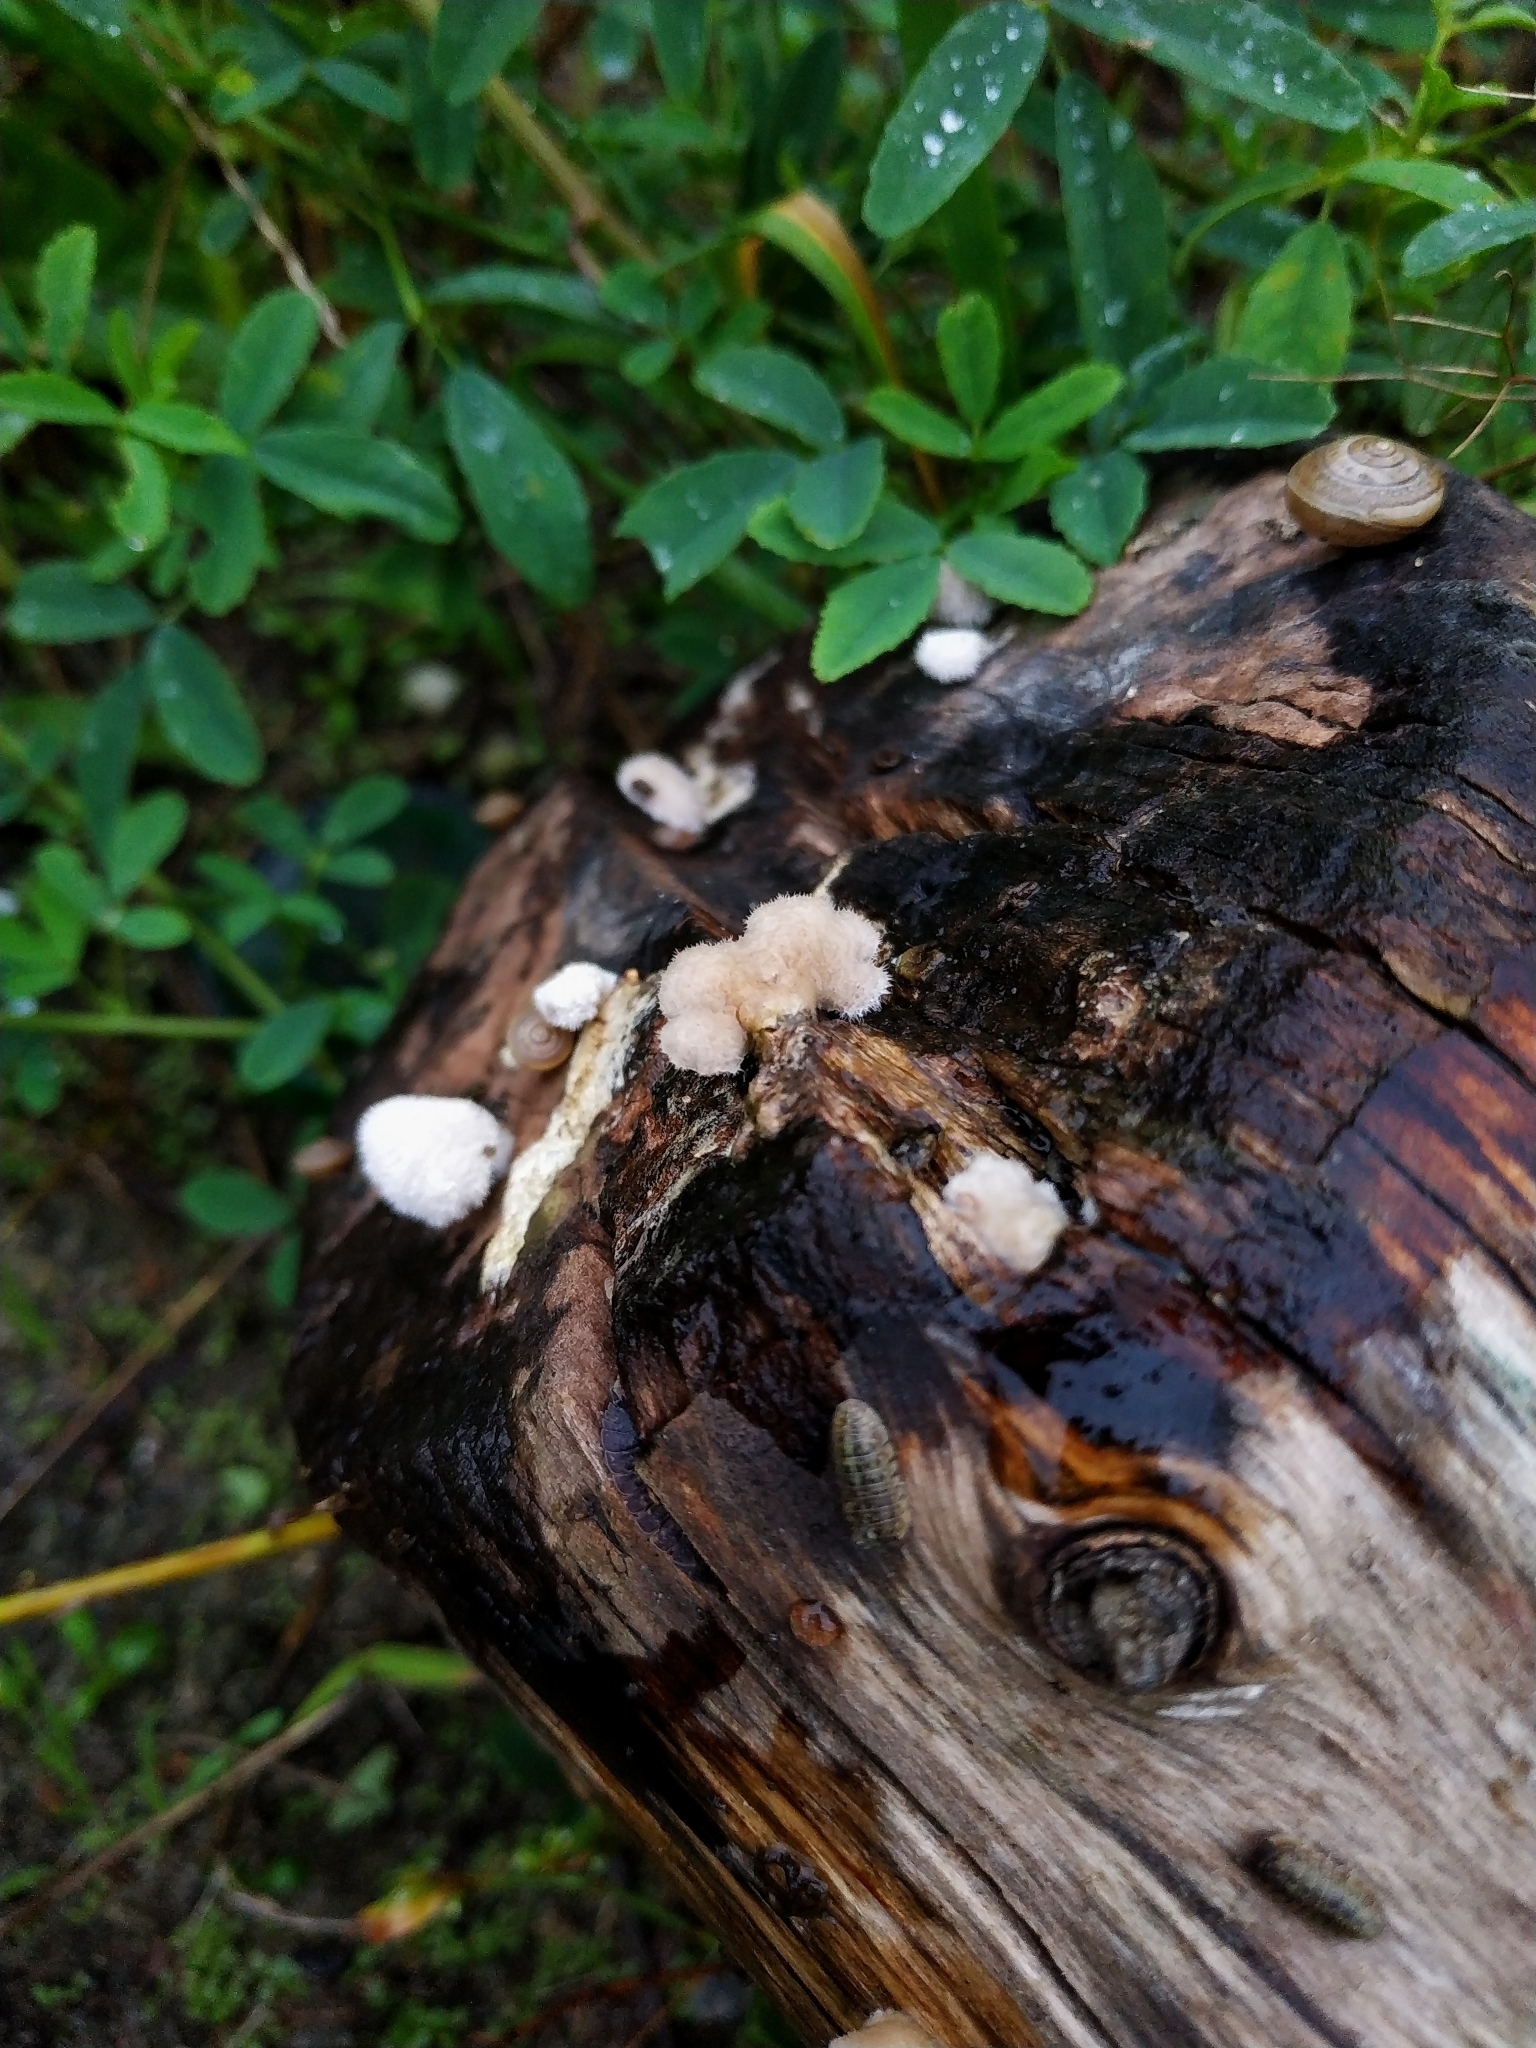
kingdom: Fungi
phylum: Basidiomycota
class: Agaricomycetes
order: Agaricales
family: Schizophyllaceae
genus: Schizophyllum
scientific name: Schizophyllum commune
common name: Common porecrust
